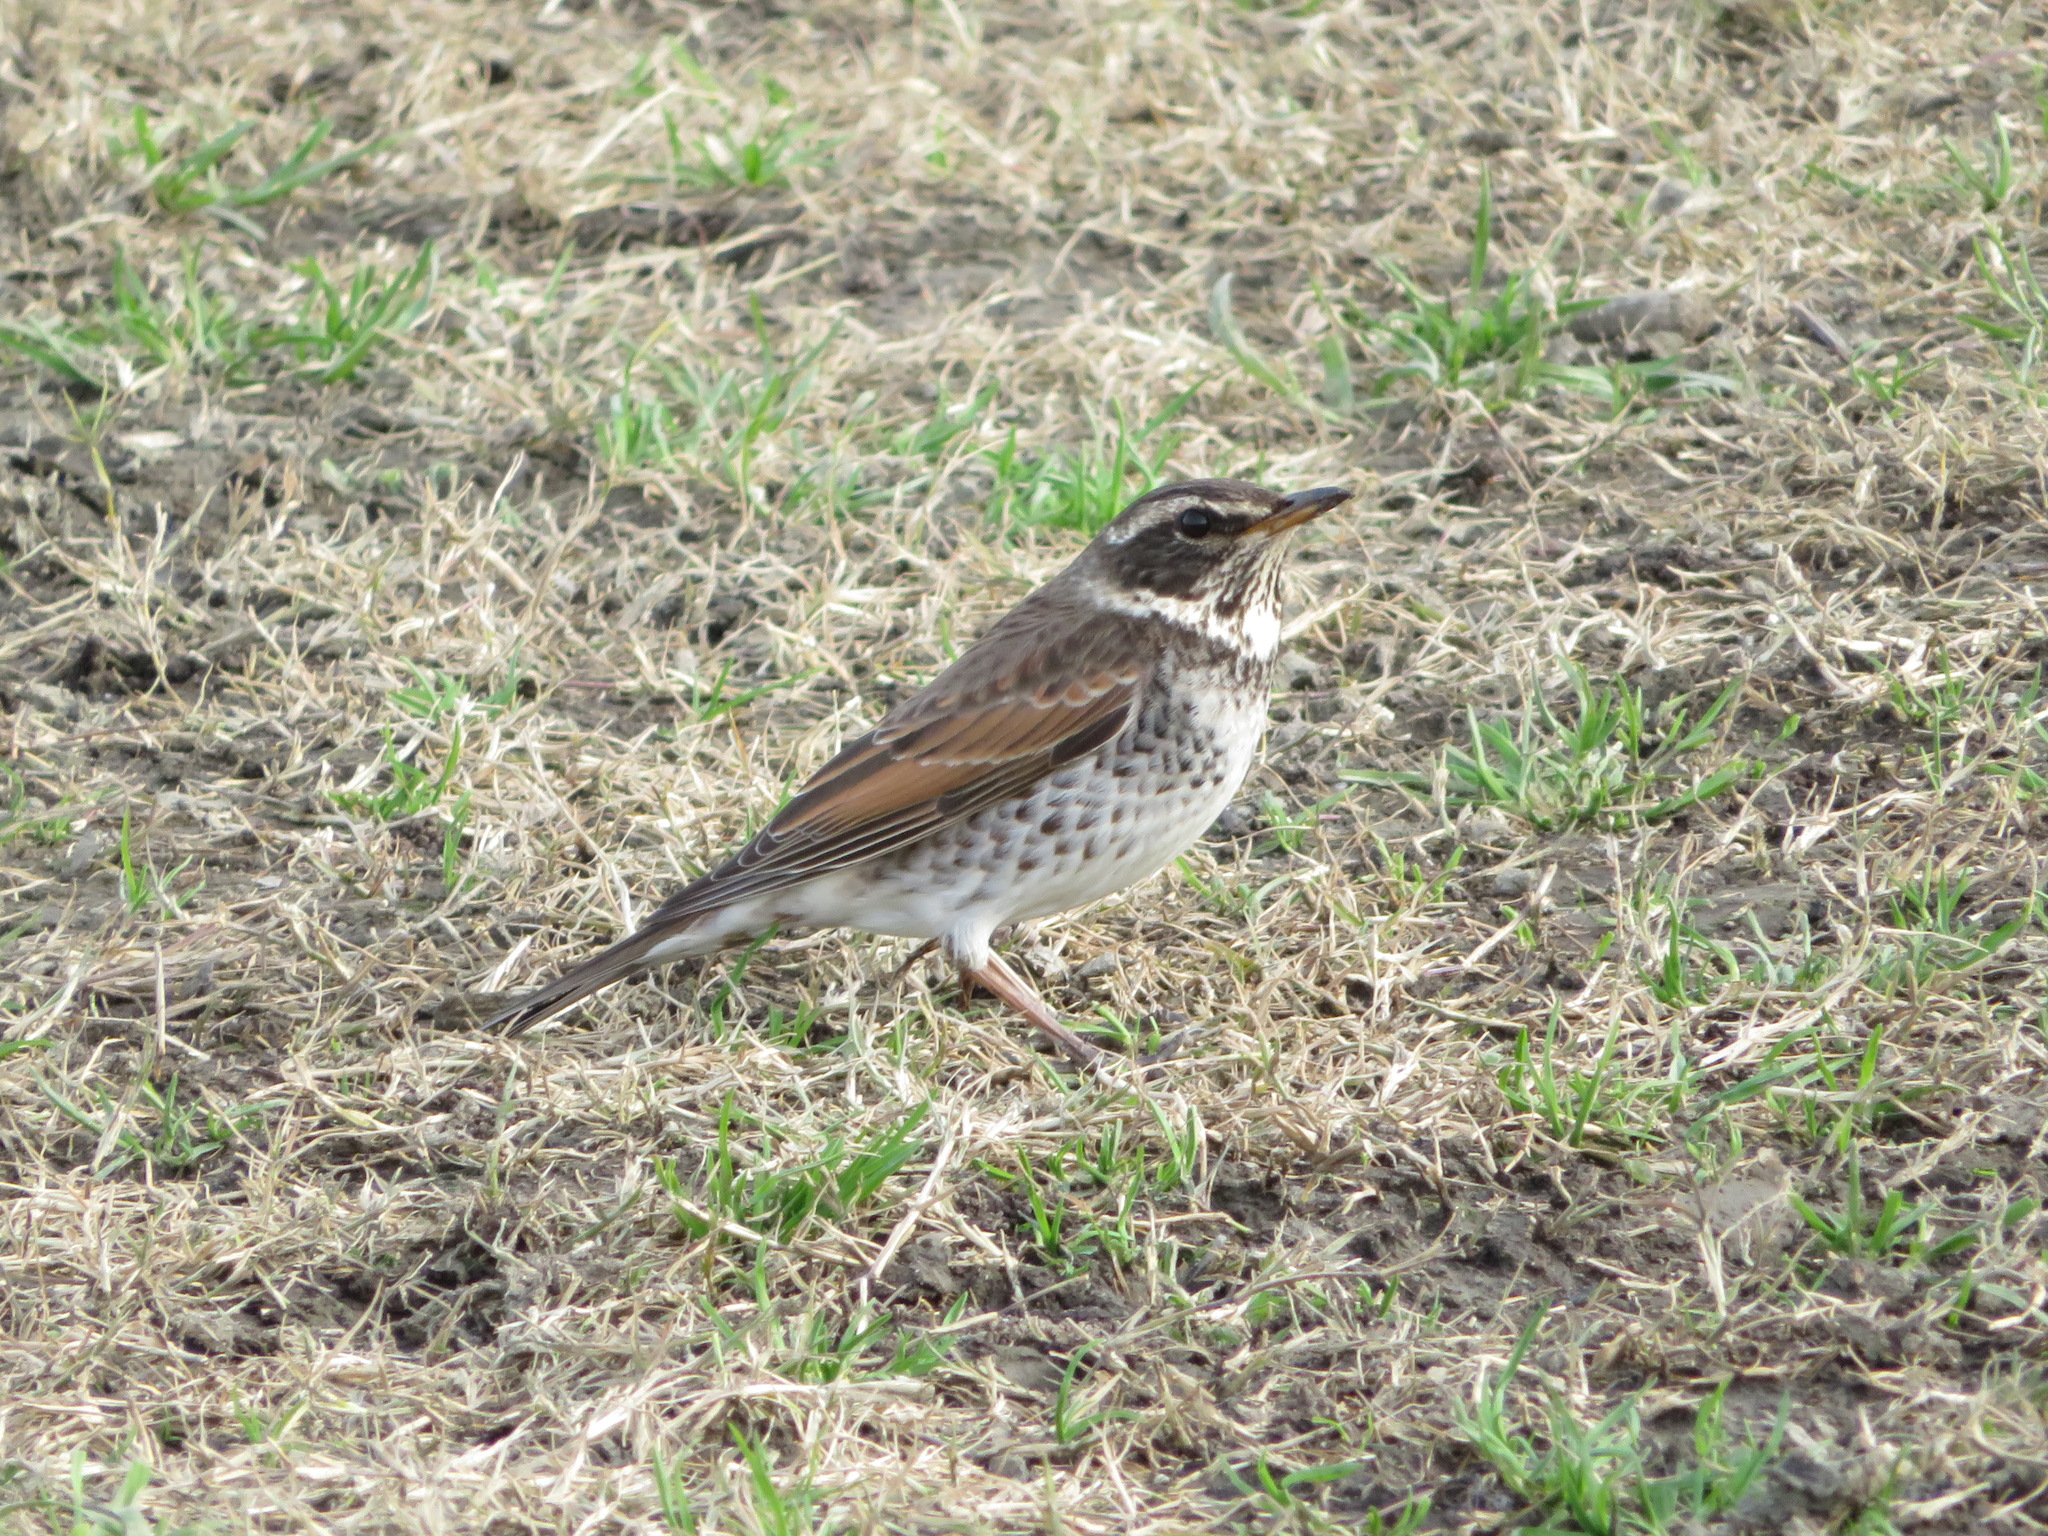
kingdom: Animalia
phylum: Chordata
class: Aves
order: Passeriformes
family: Turdidae
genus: Turdus
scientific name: Turdus eunomus
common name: Dusky thrush
